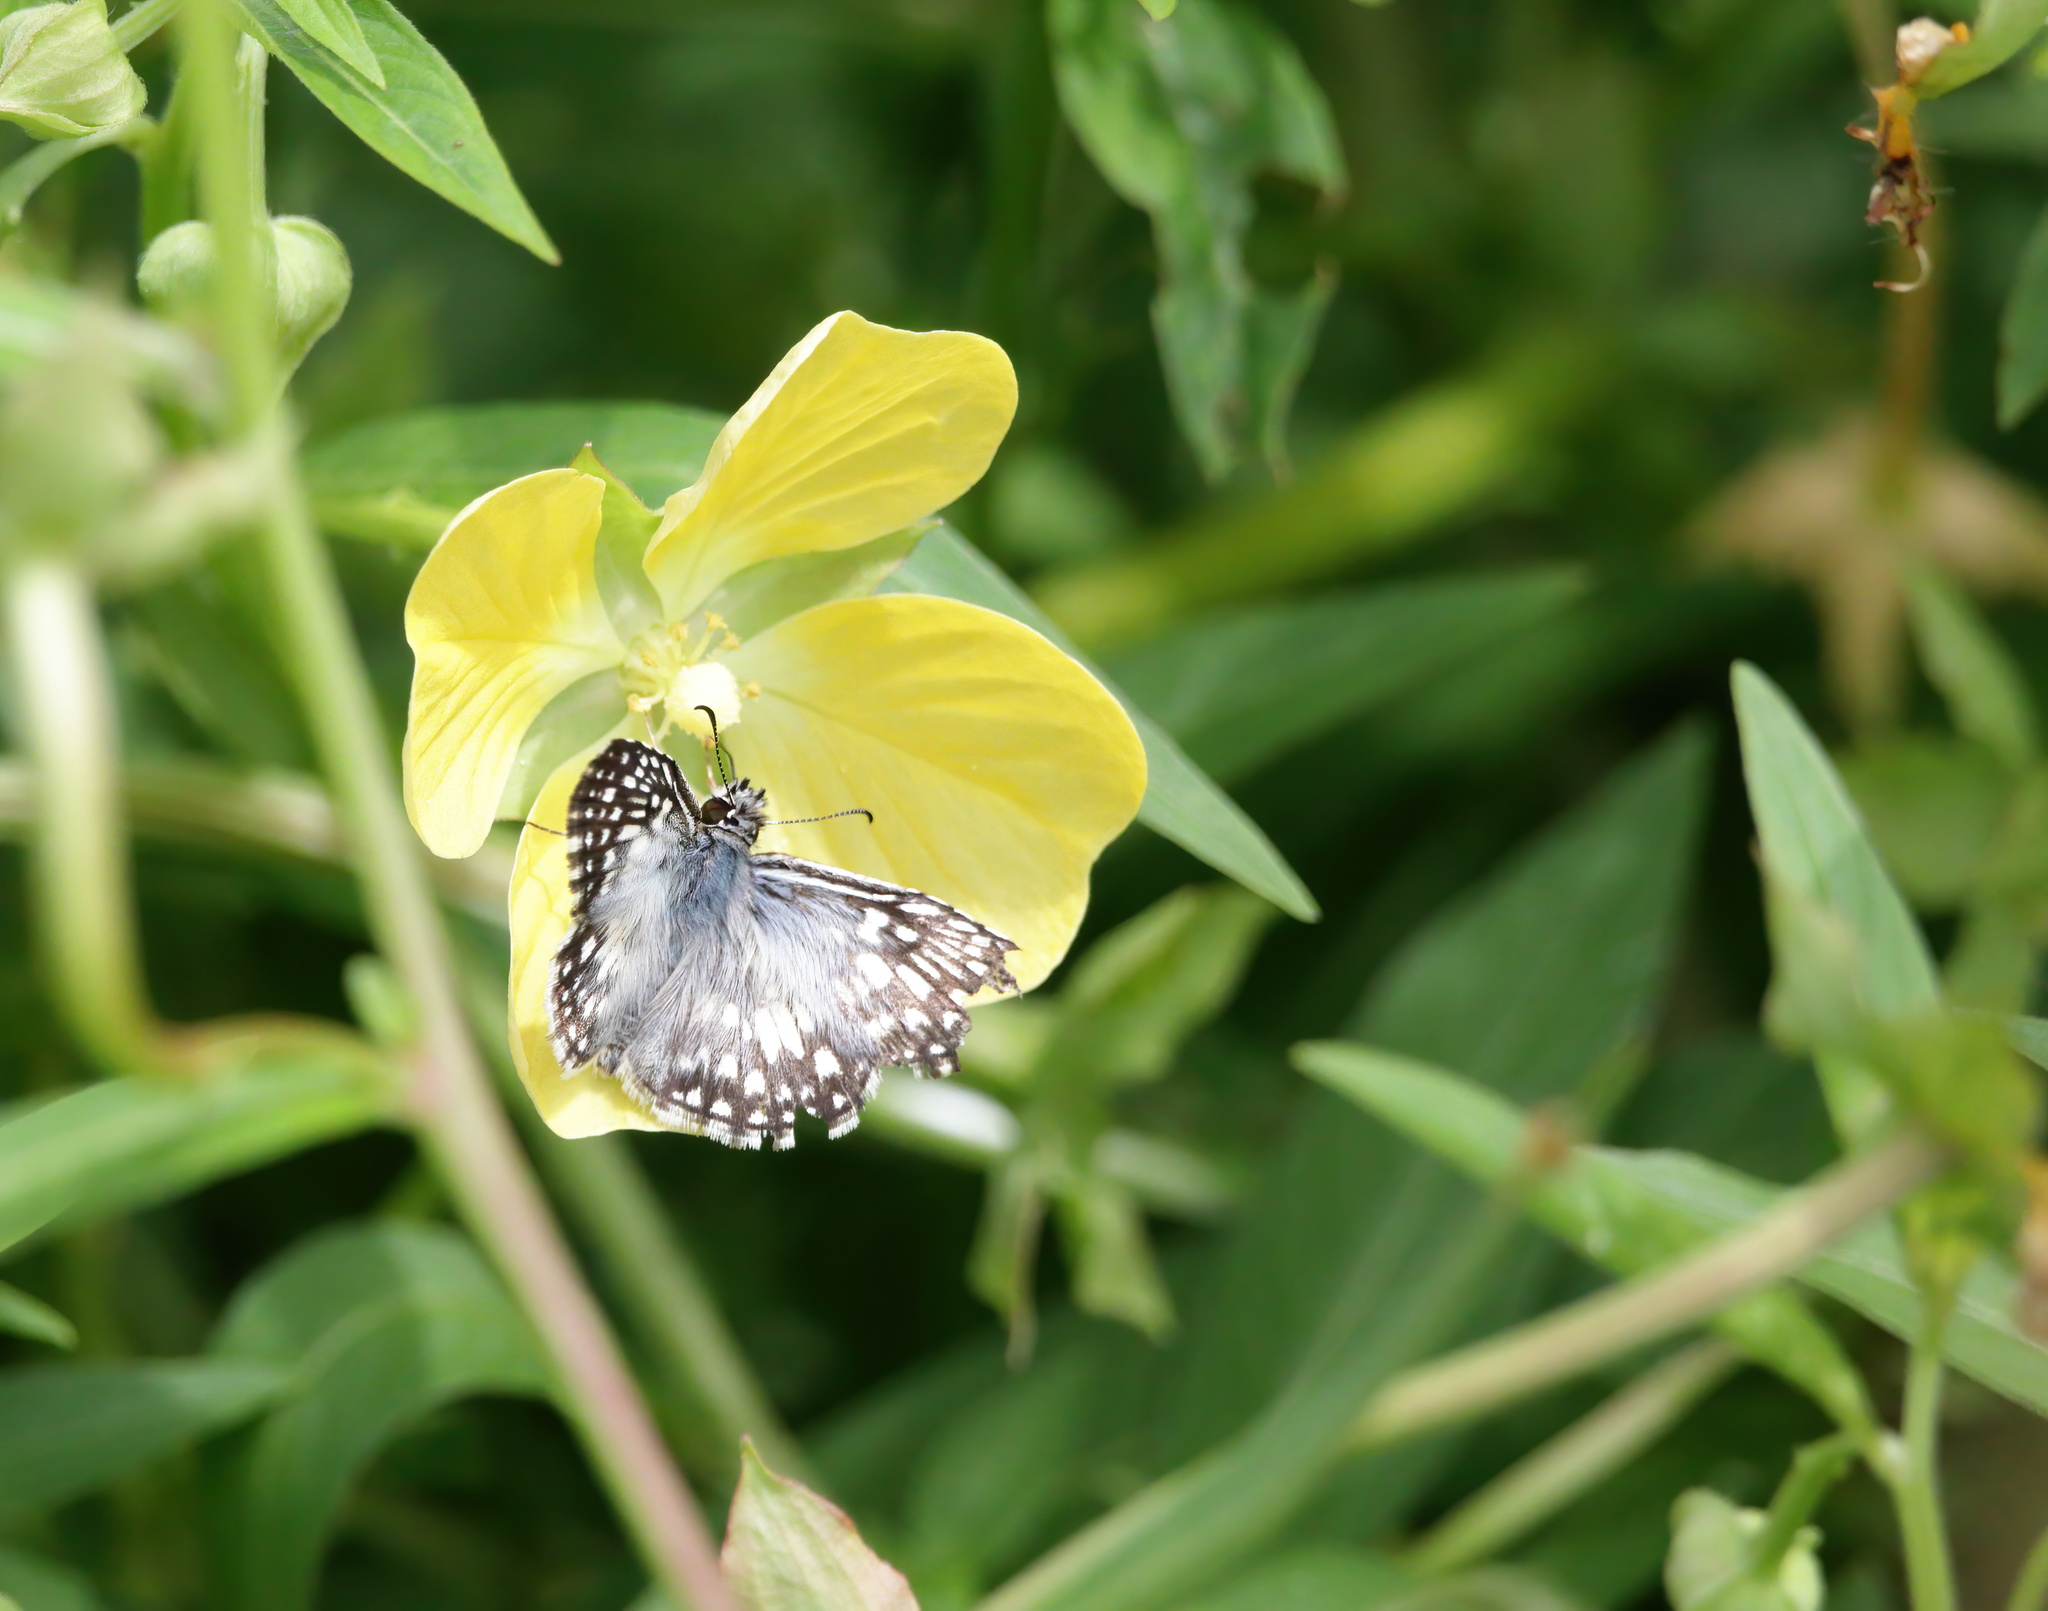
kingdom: Animalia
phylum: Arthropoda
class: Insecta
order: Lepidoptera
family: Hesperiidae
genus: Pyrgus
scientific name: Pyrgus oileus
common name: Tropical checkered-skipper
